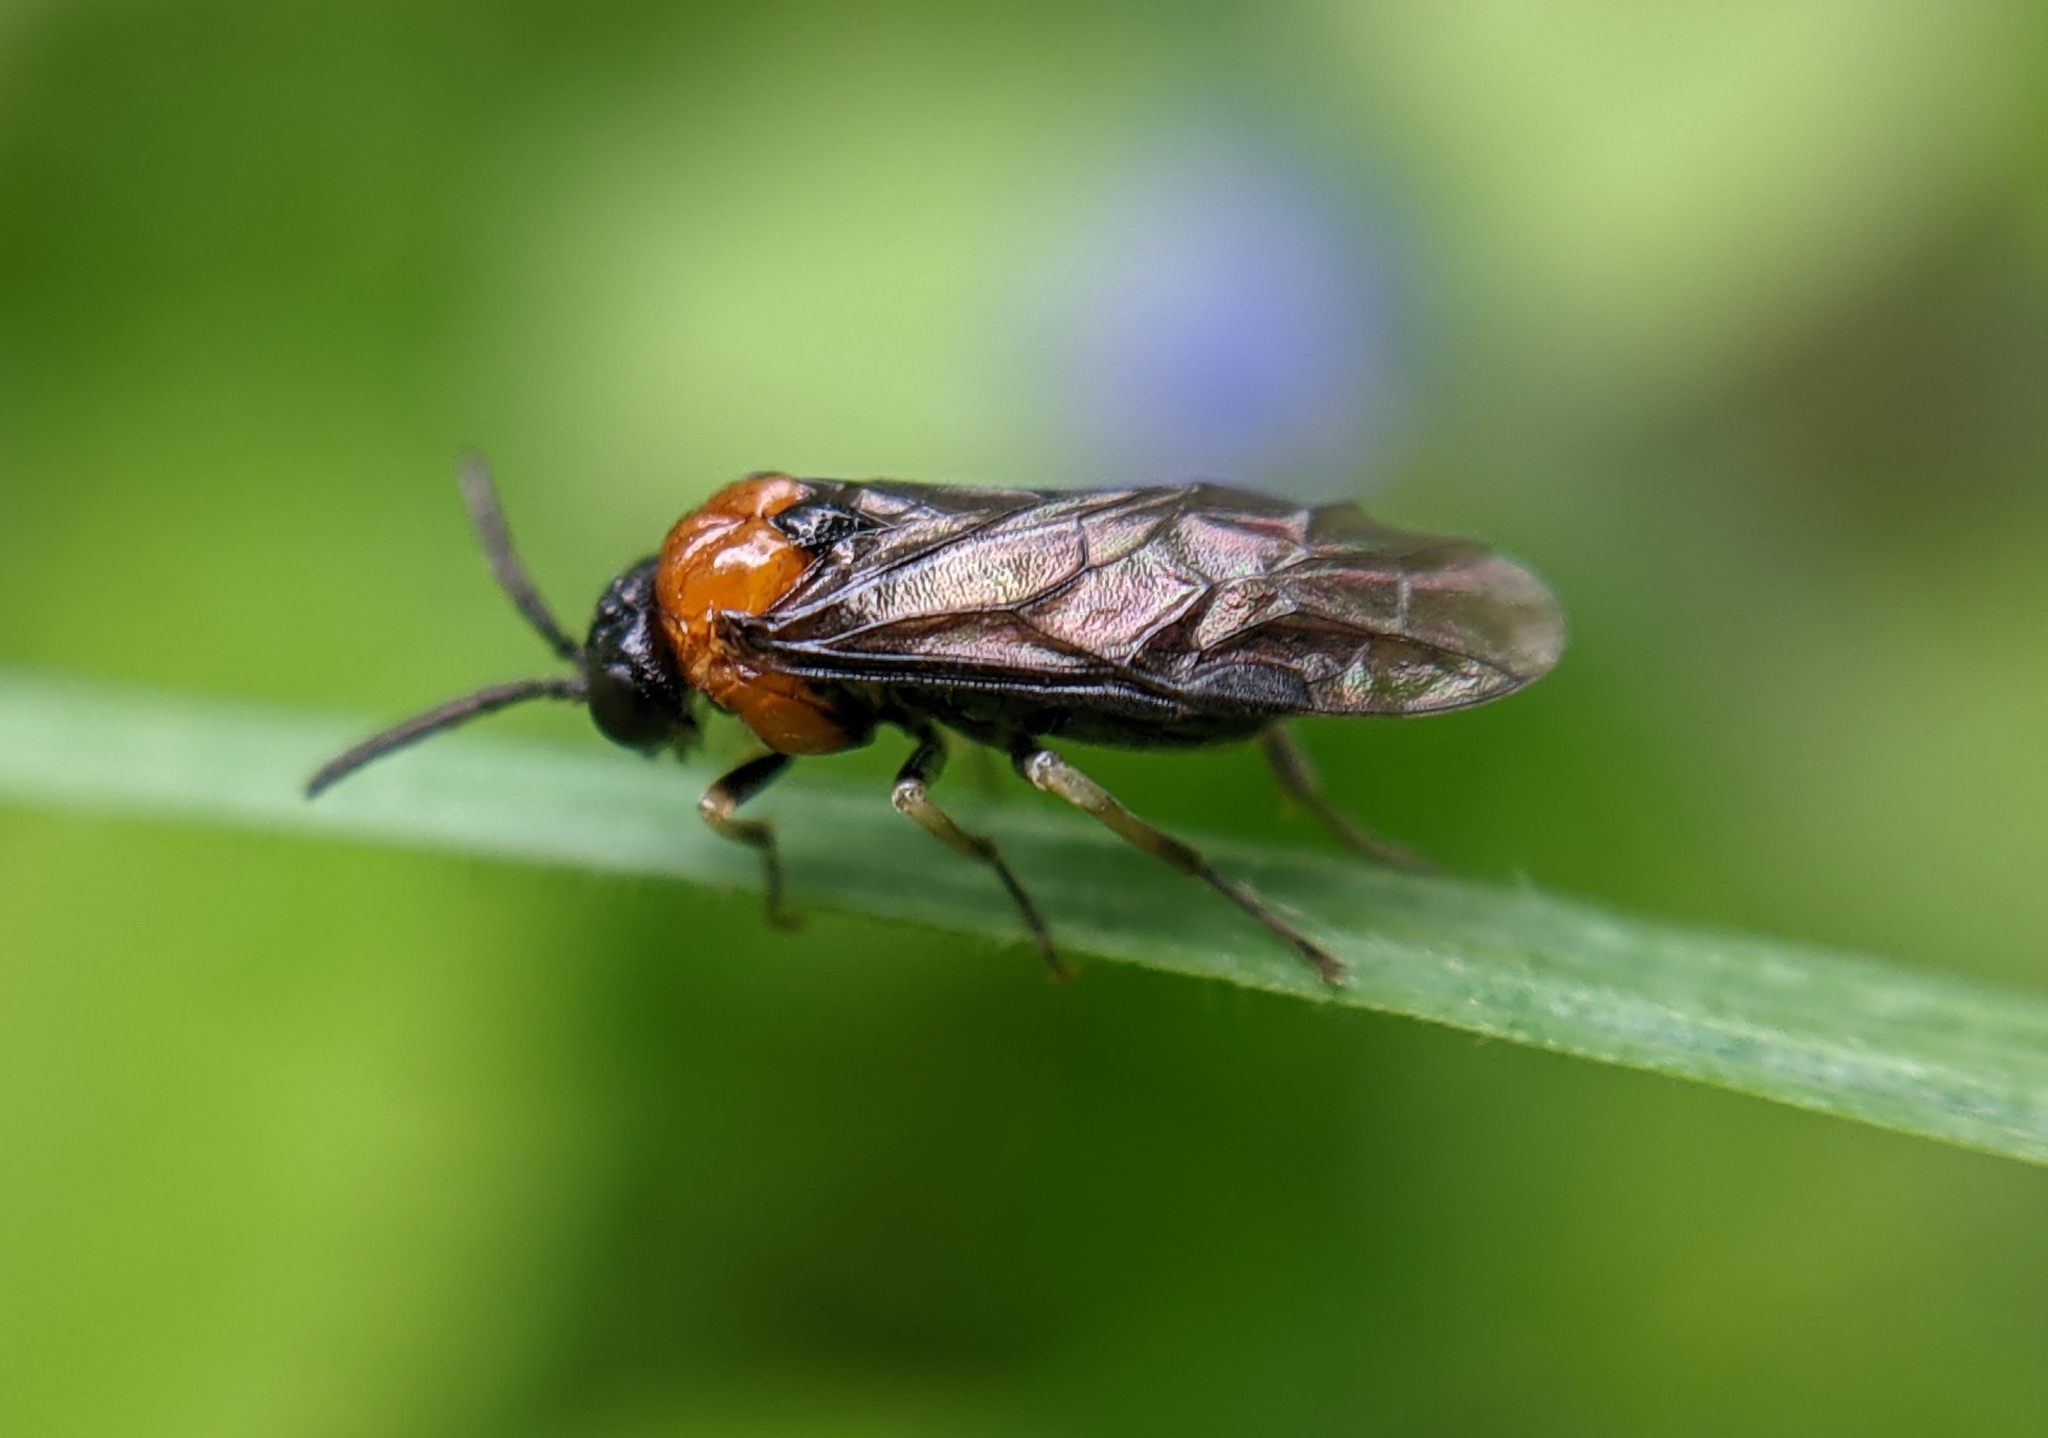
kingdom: Animalia
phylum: Arthropoda
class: Insecta
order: Hymenoptera
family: Tenthredinidae
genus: Eutomostethus
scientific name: Eutomostethus ephippium
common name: Tenthredid wasp
